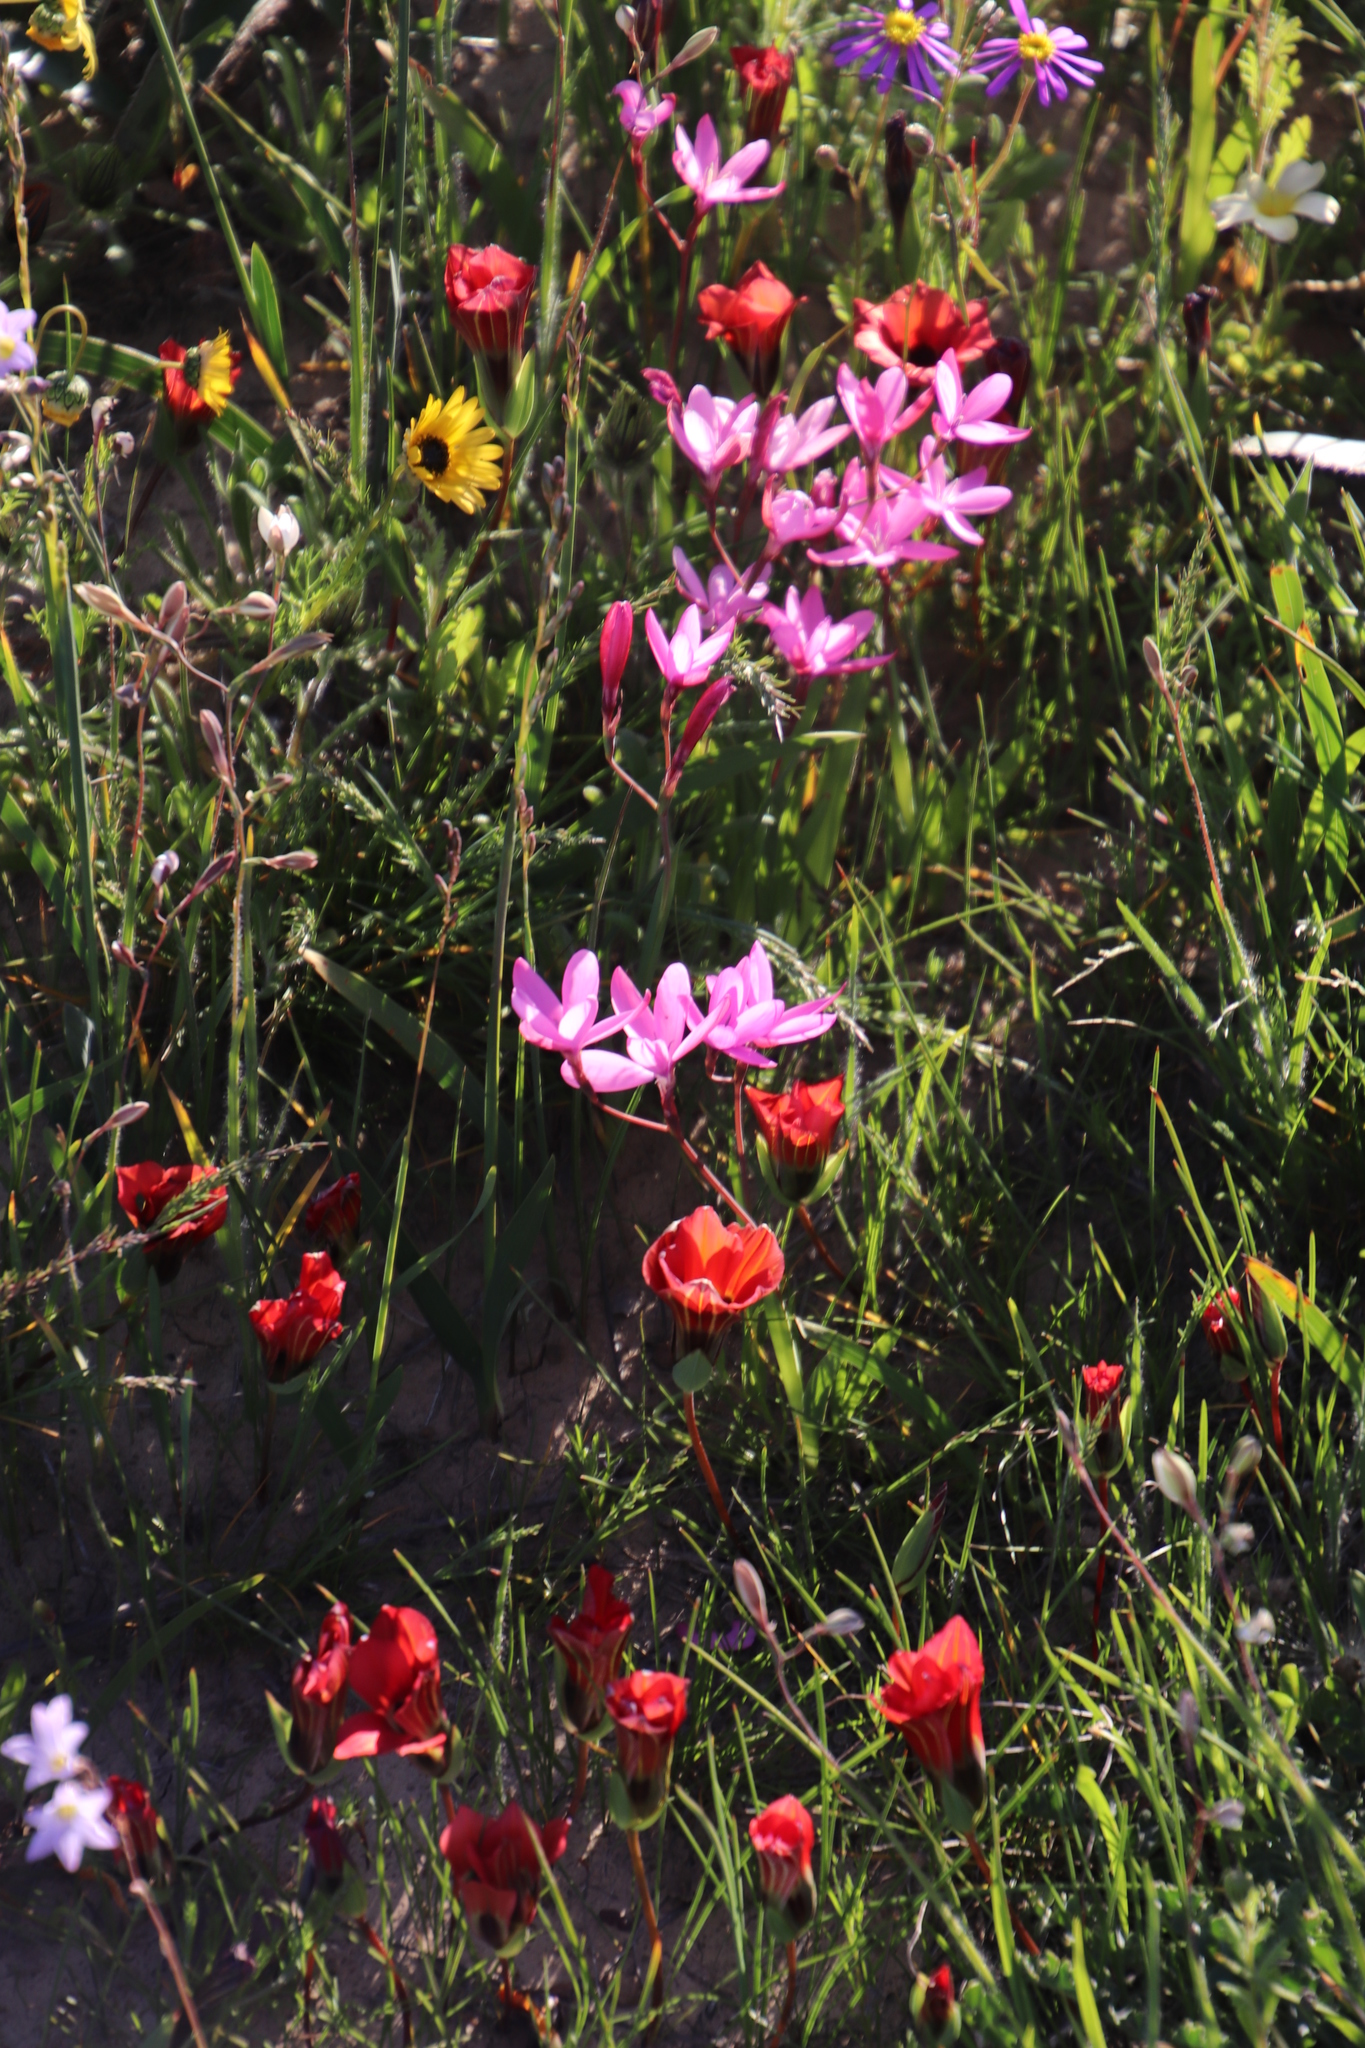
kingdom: Plantae
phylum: Tracheophyta
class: Liliopsida
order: Asparagales
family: Iridaceae
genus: Romulea
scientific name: Romulea monadelpha
